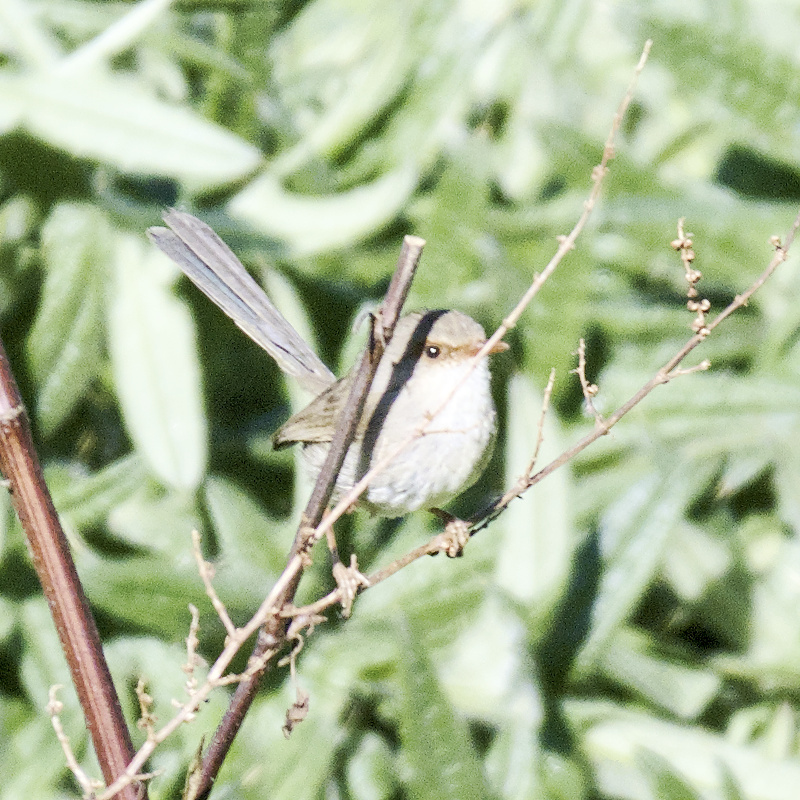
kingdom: Animalia
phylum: Chordata
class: Aves
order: Passeriformes
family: Maluridae
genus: Malurus
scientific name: Malurus cyaneus
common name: Superb fairywren
